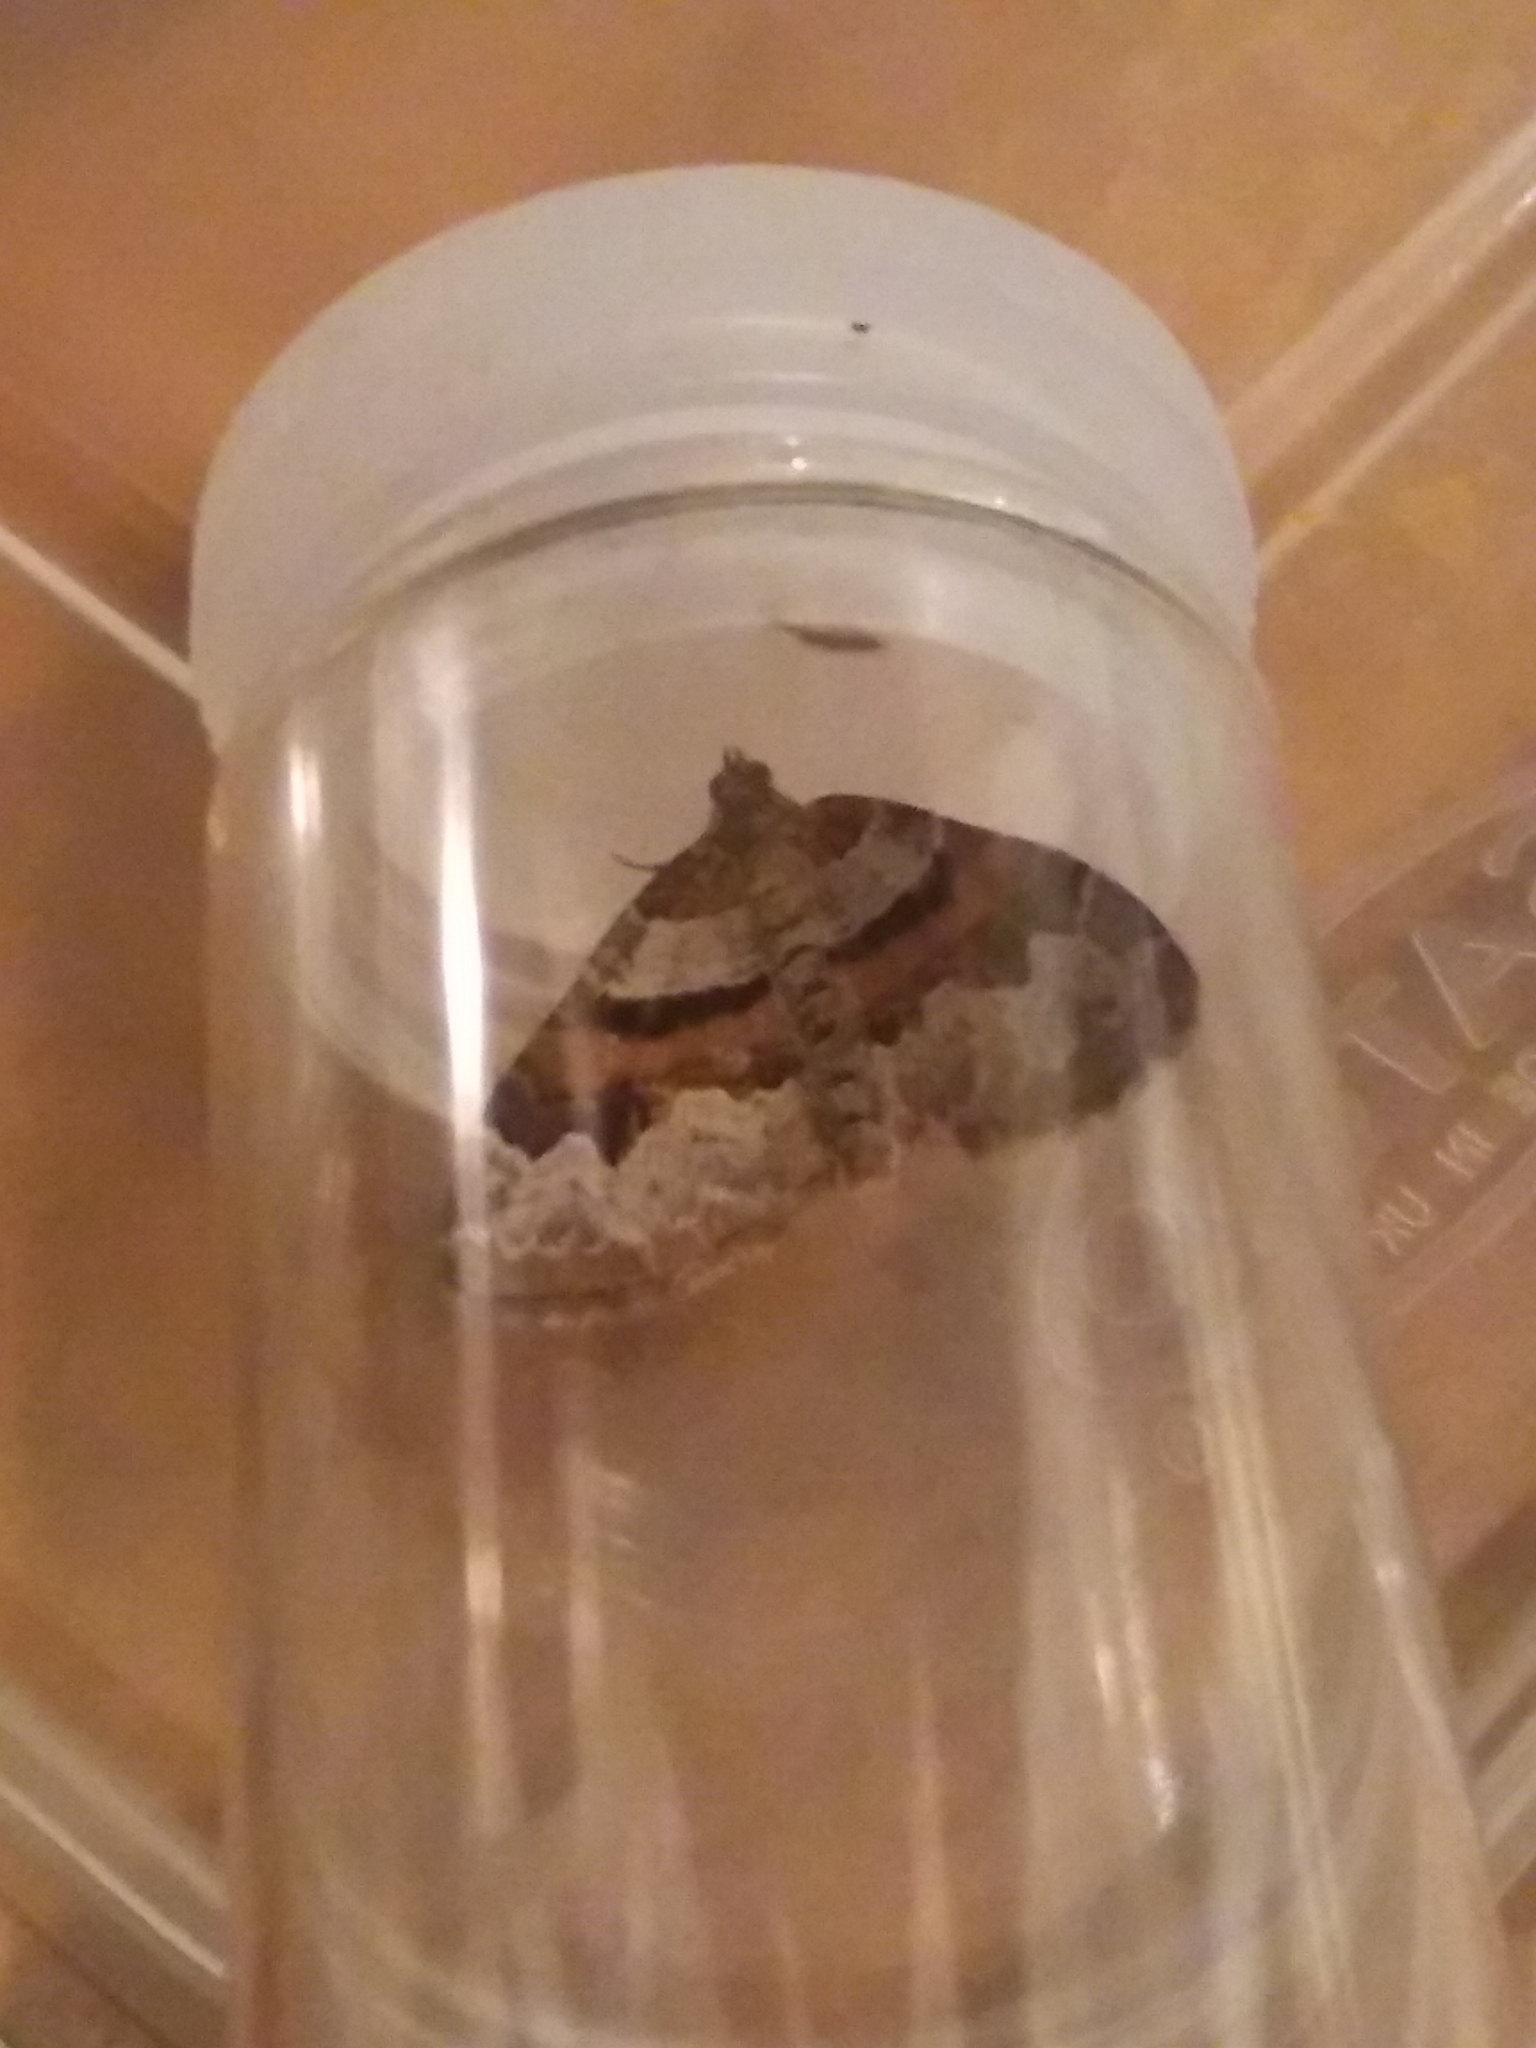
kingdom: Animalia
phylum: Arthropoda
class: Insecta
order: Lepidoptera
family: Geometridae
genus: Xanthorhoe
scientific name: Xanthorhoe designata
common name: Flame carpet
